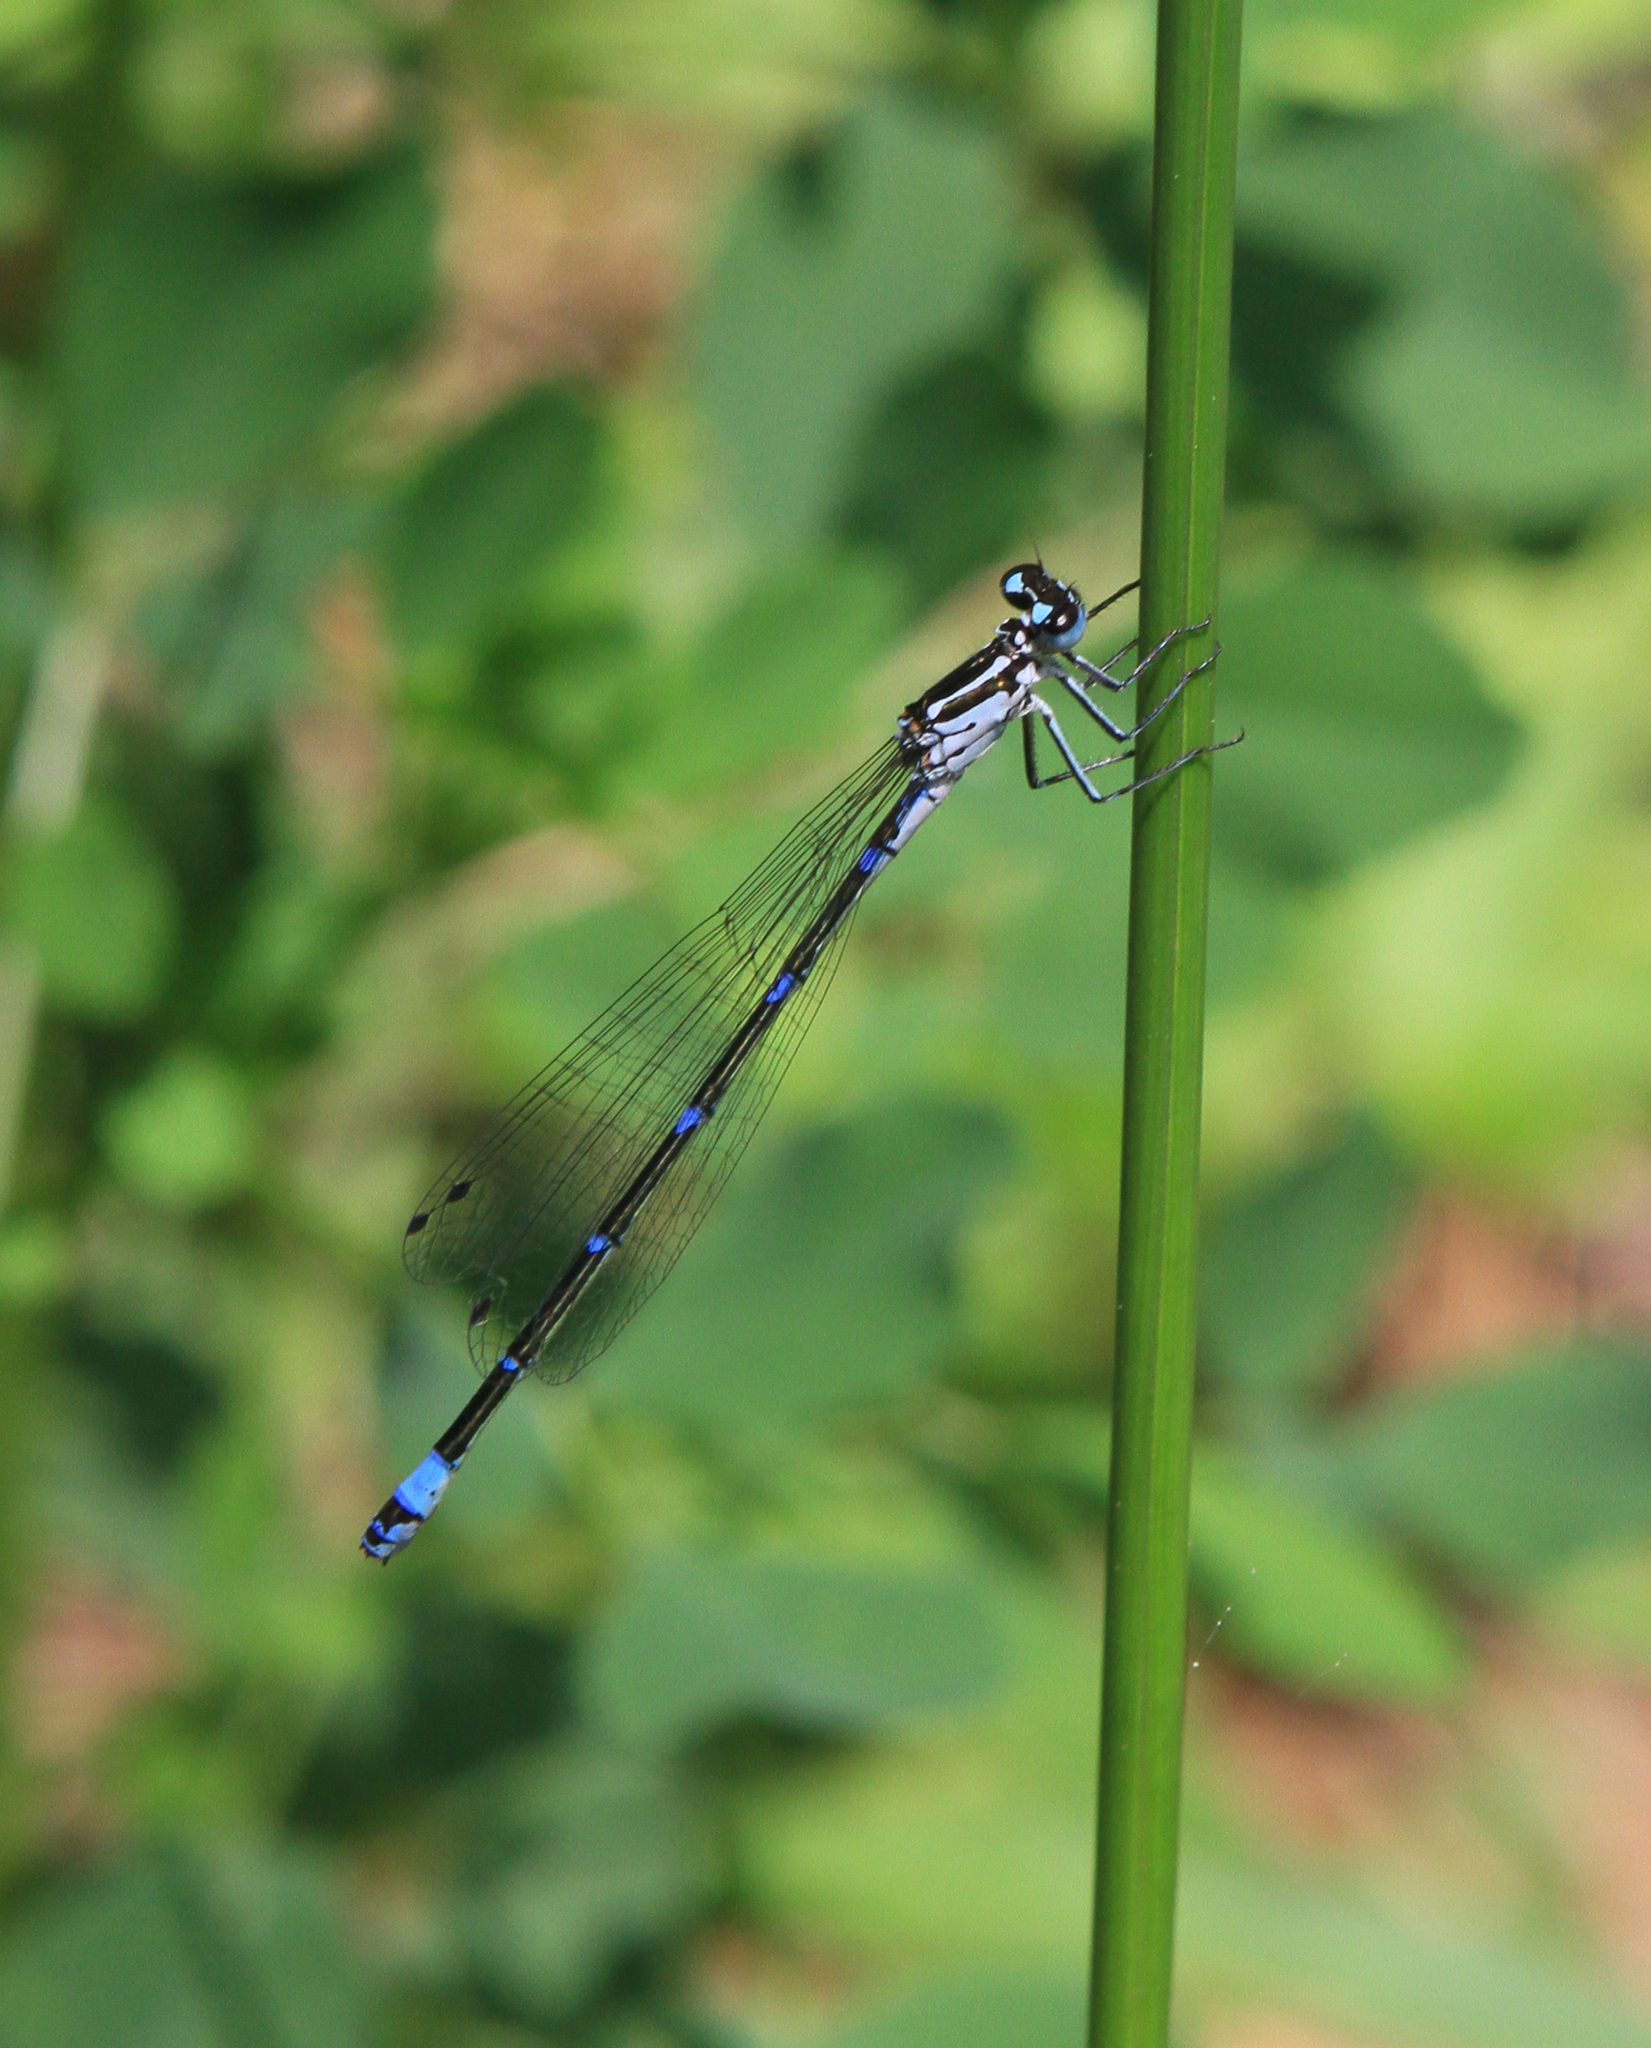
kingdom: Animalia
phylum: Arthropoda
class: Insecta
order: Odonata
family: Coenagrionidae
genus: Coenagrion
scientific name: Coenagrion pulchellum
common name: Variable bluet
